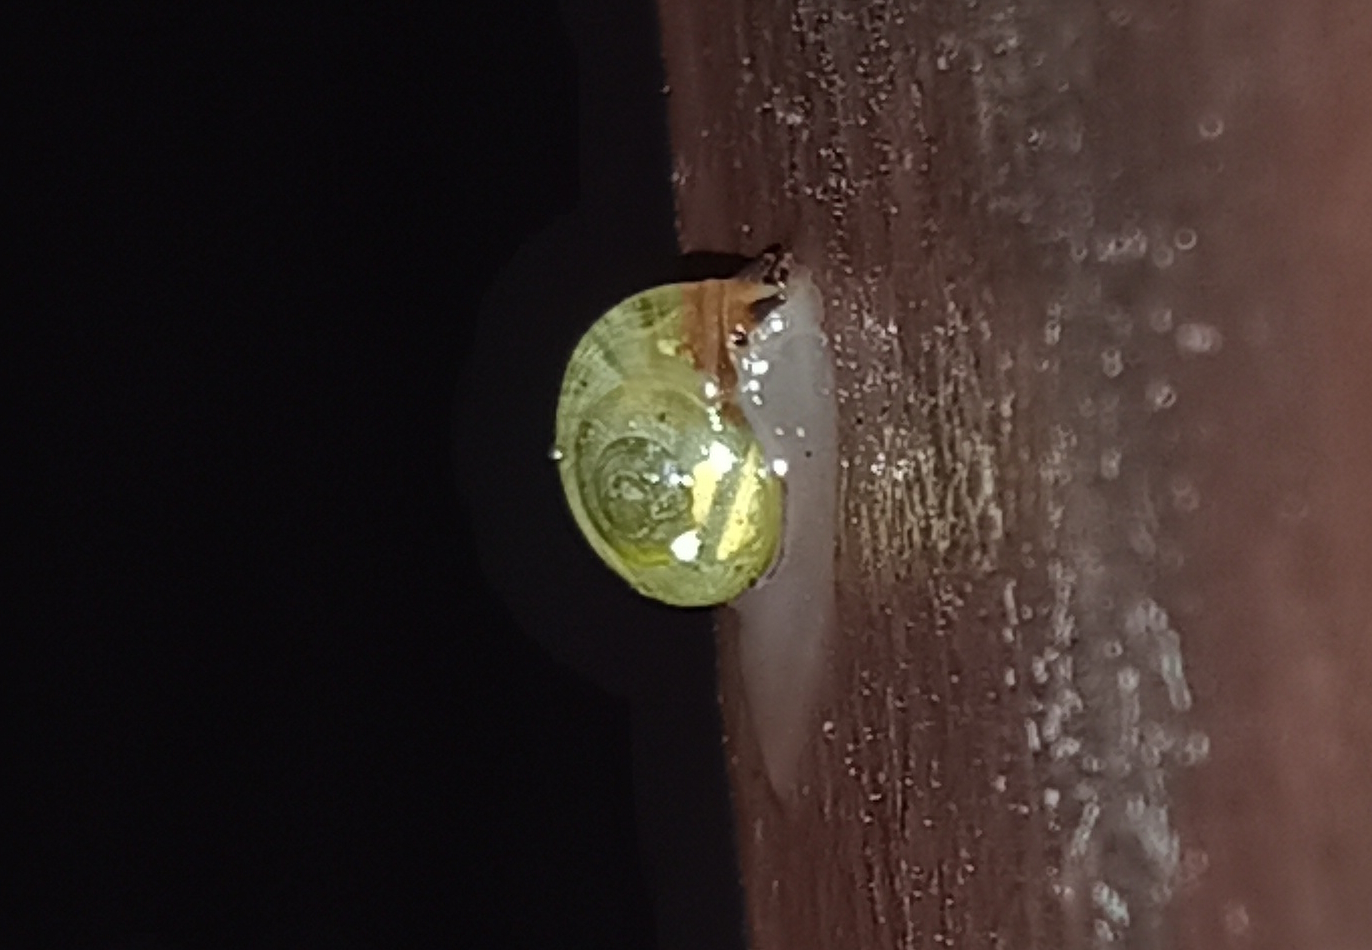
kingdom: Animalia
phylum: Mollusca
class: Gastropoda
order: Cycloneritida
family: Helicinidae
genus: Helicina
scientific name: Helicina boettgeri
